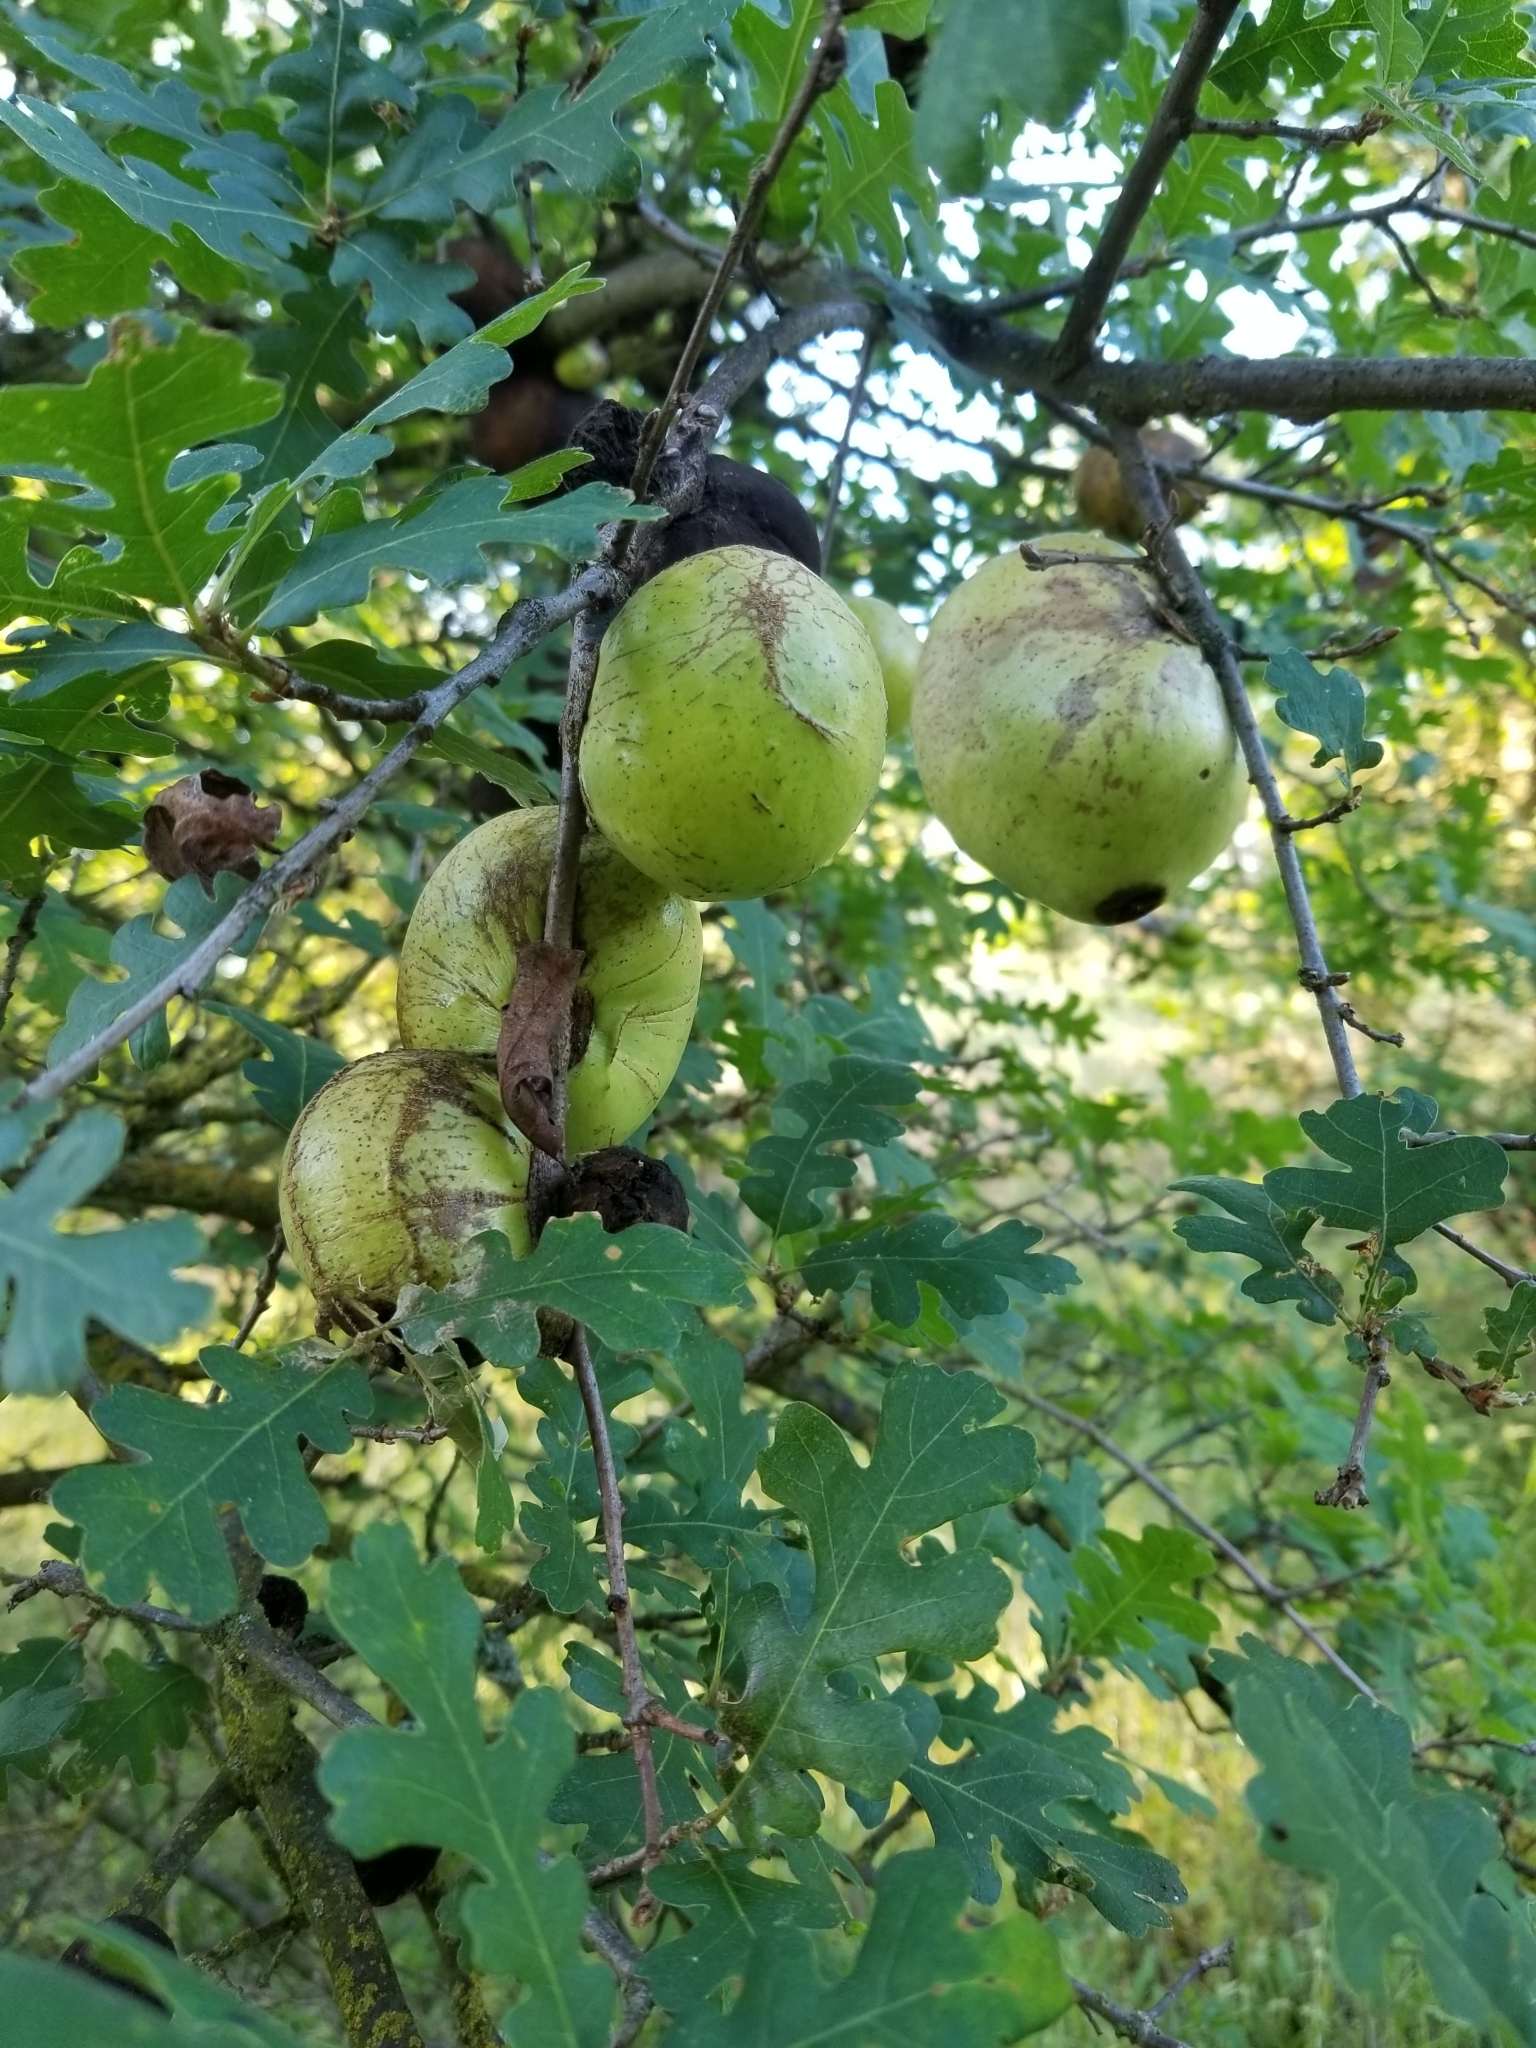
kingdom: Animalia
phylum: Arthropoda
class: Insecta
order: Hymenoptera
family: Cynipidae
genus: Andricus
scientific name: Andricus quercuscalifornicus
